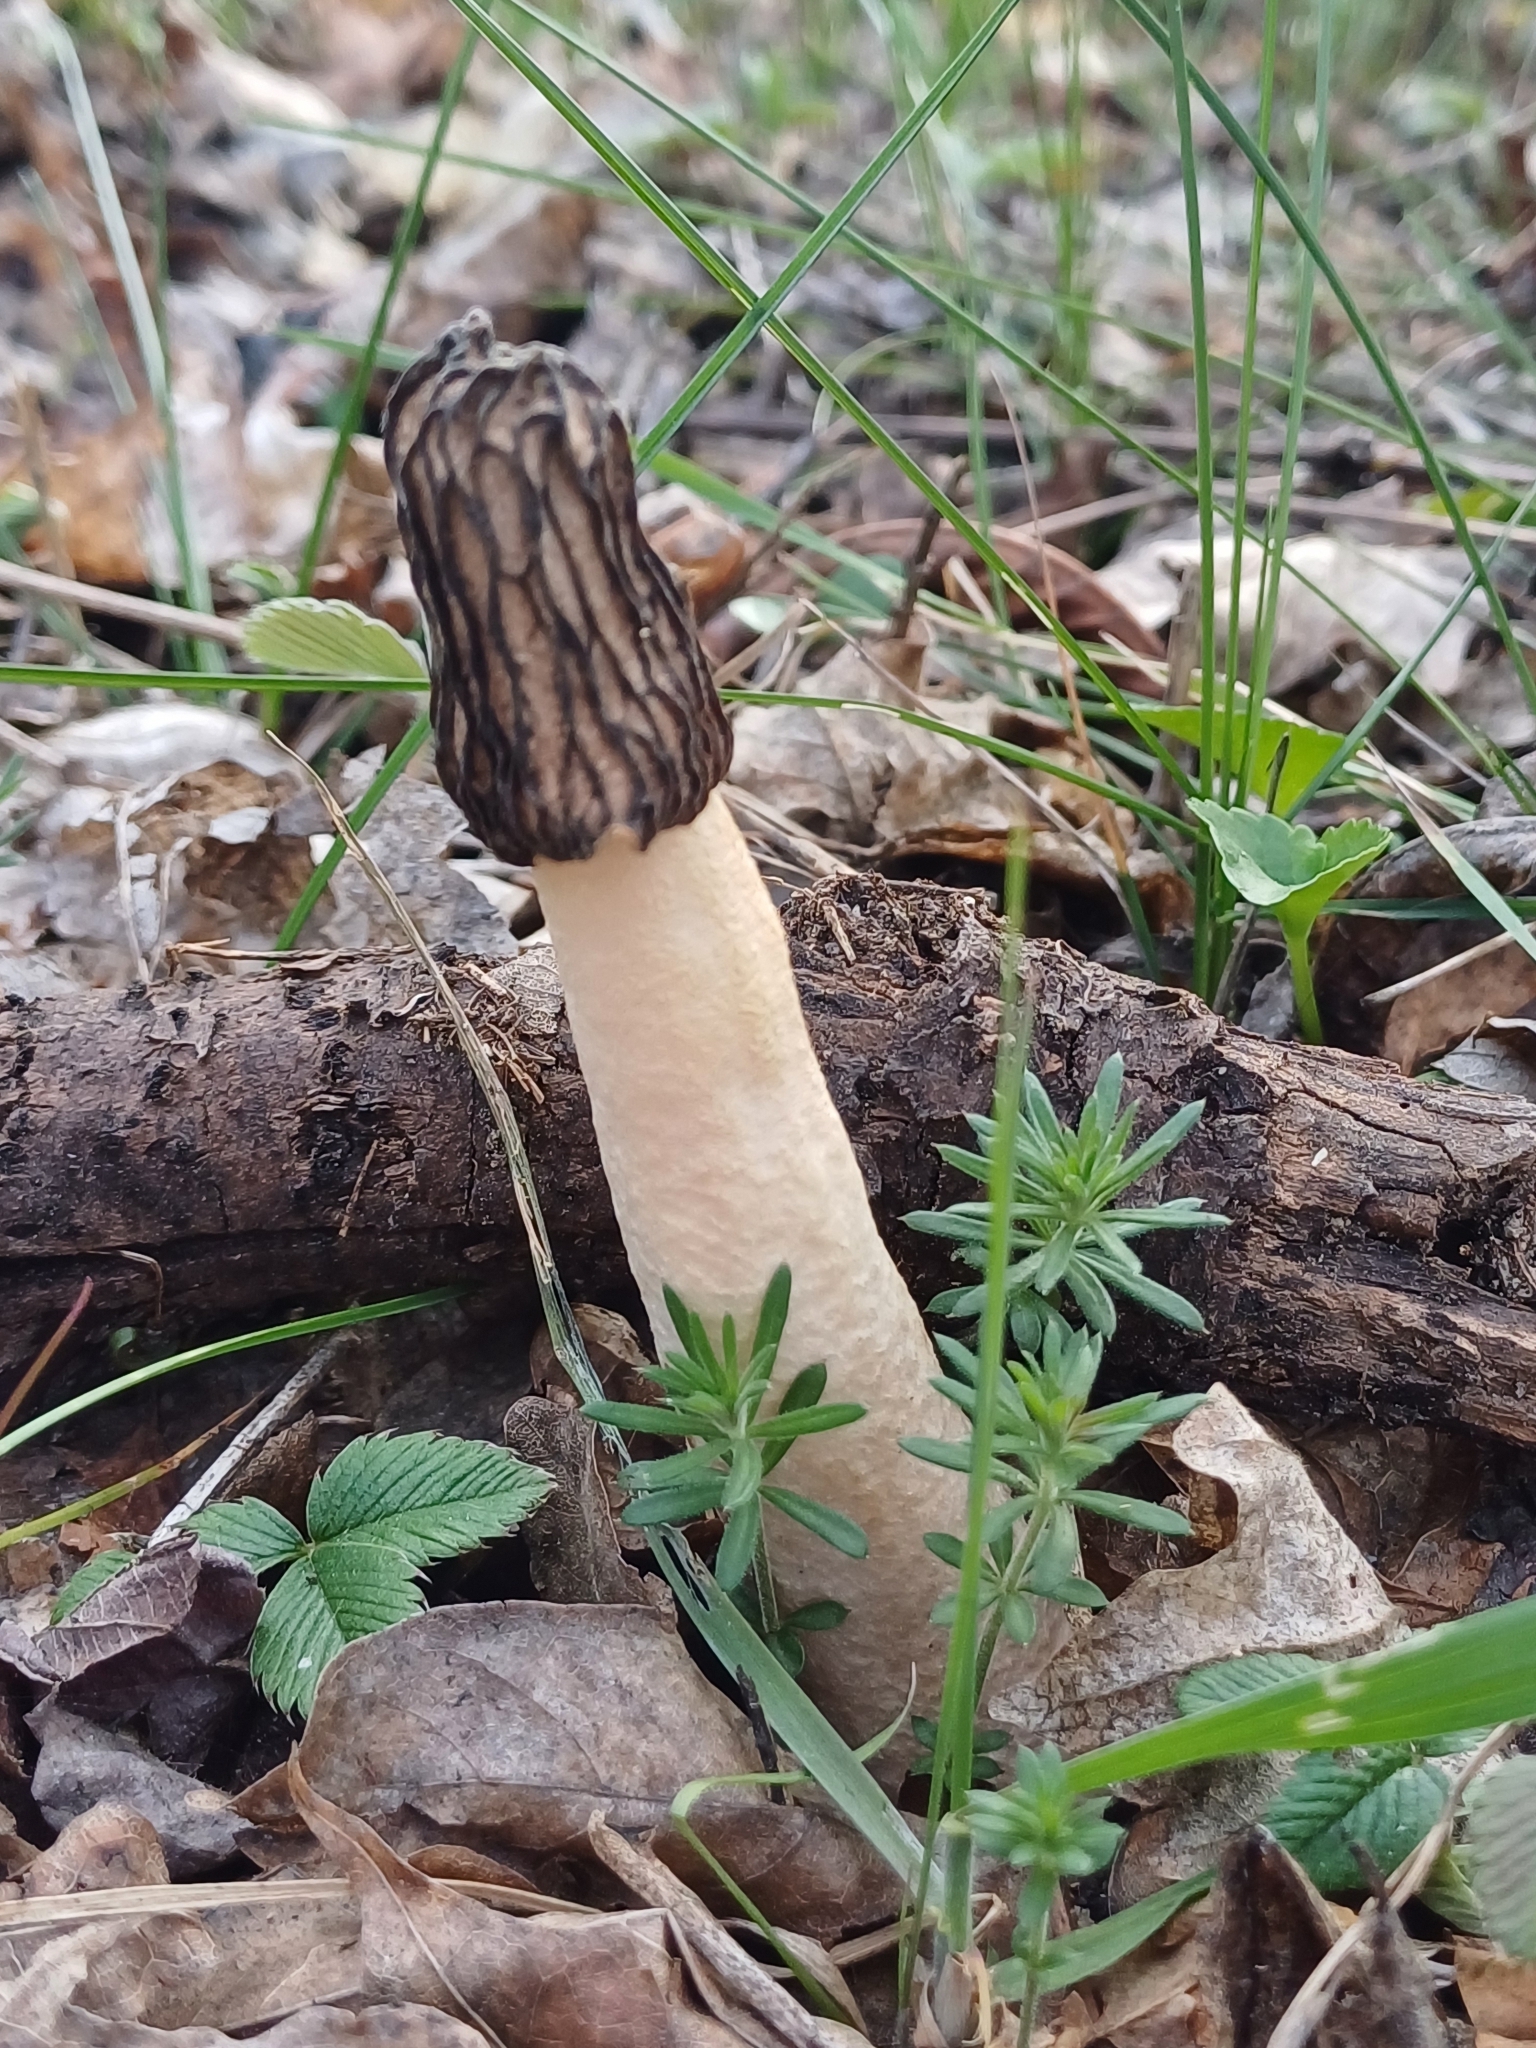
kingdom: Fungi
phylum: Ascomycota
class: Pezizomycetes
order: Pezizales
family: Morchellaceae
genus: Verpa
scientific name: Verpa bohemica
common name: Wrinkled thimble morel
